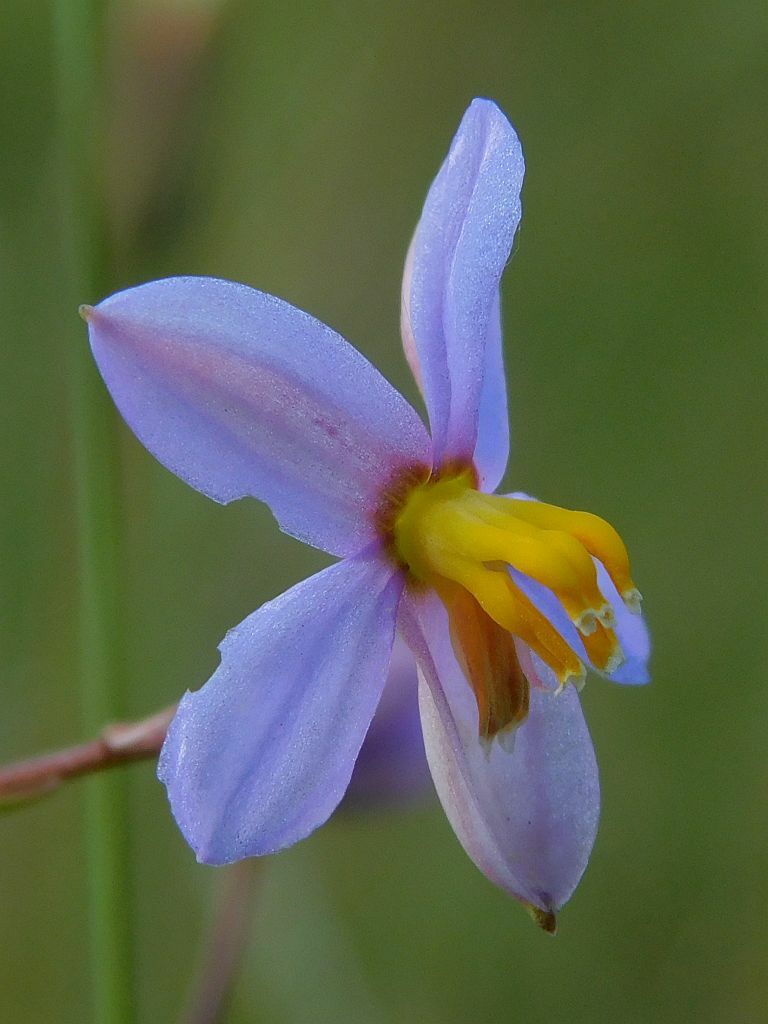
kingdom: Plantae
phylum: Tracheophyta
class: Liliopsida
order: Asparagales
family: Tecophilaeaceae
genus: Cyanella
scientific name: Cyanella hyacinthoides
